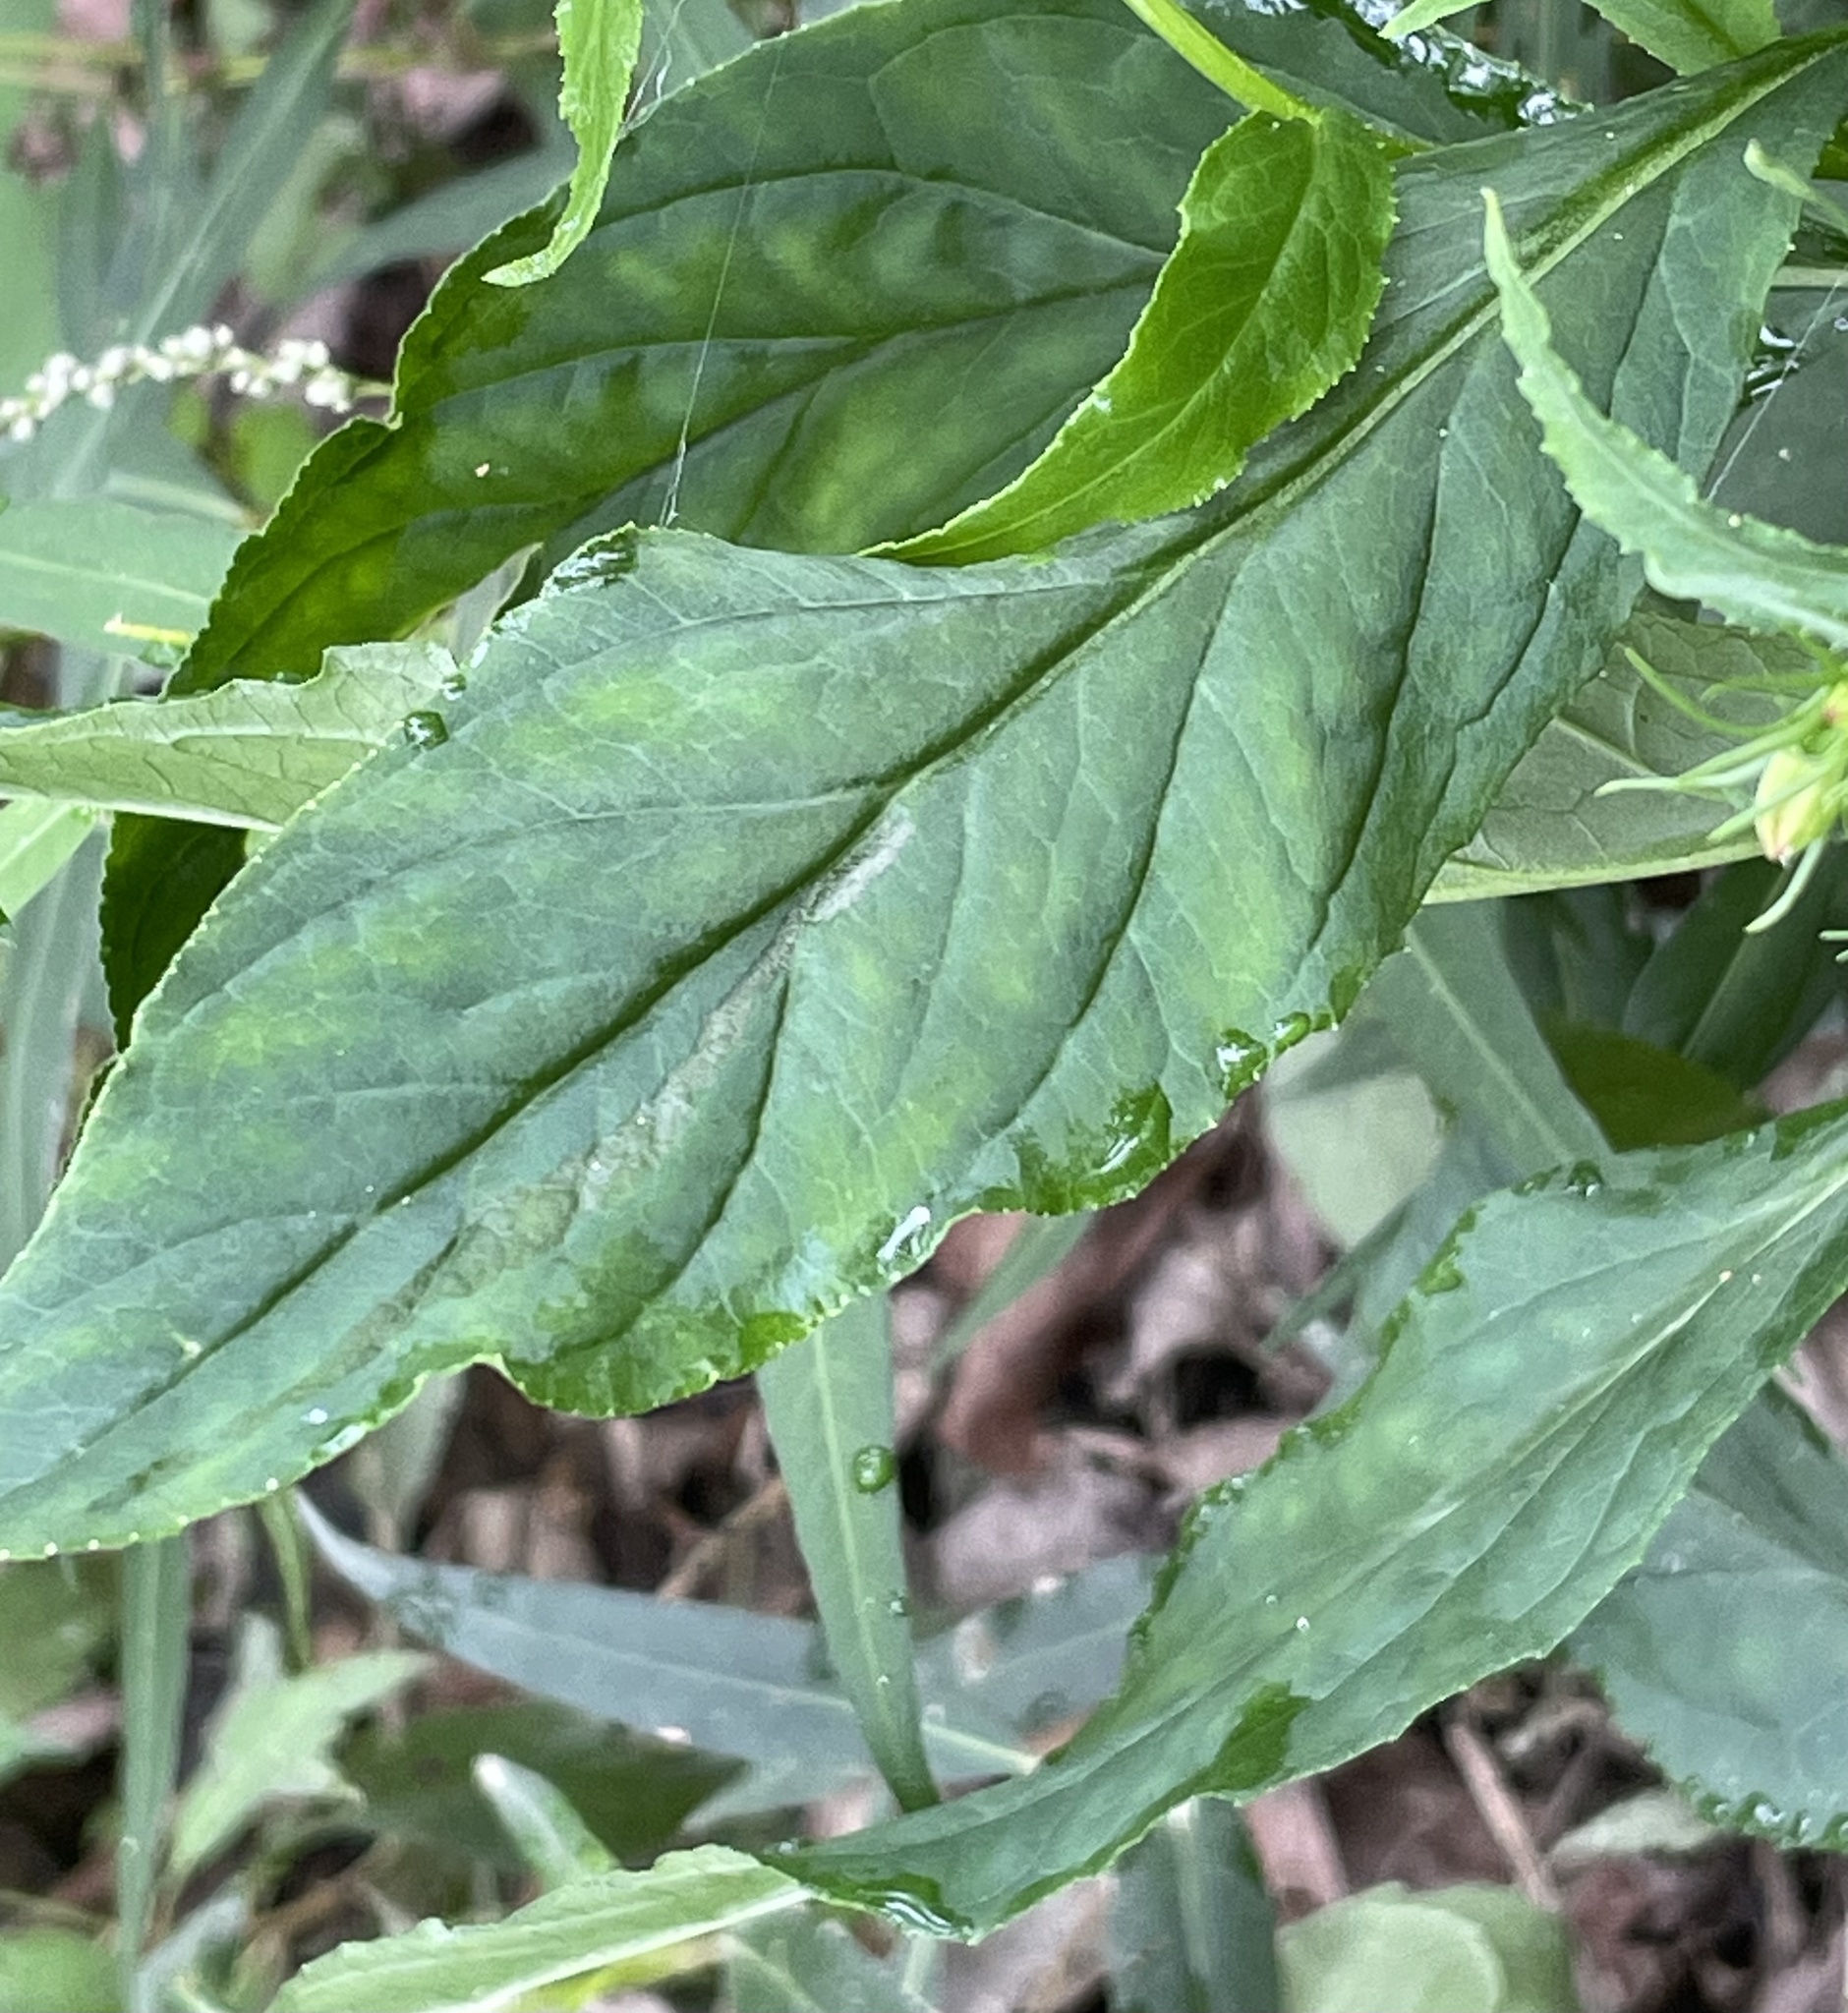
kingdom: Plantae
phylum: Tracheophyta
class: Magnoliopsida
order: Asterales
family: Campanulaceae
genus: Lobelia
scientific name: Lobelia cardinalis
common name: Cardinal flower
